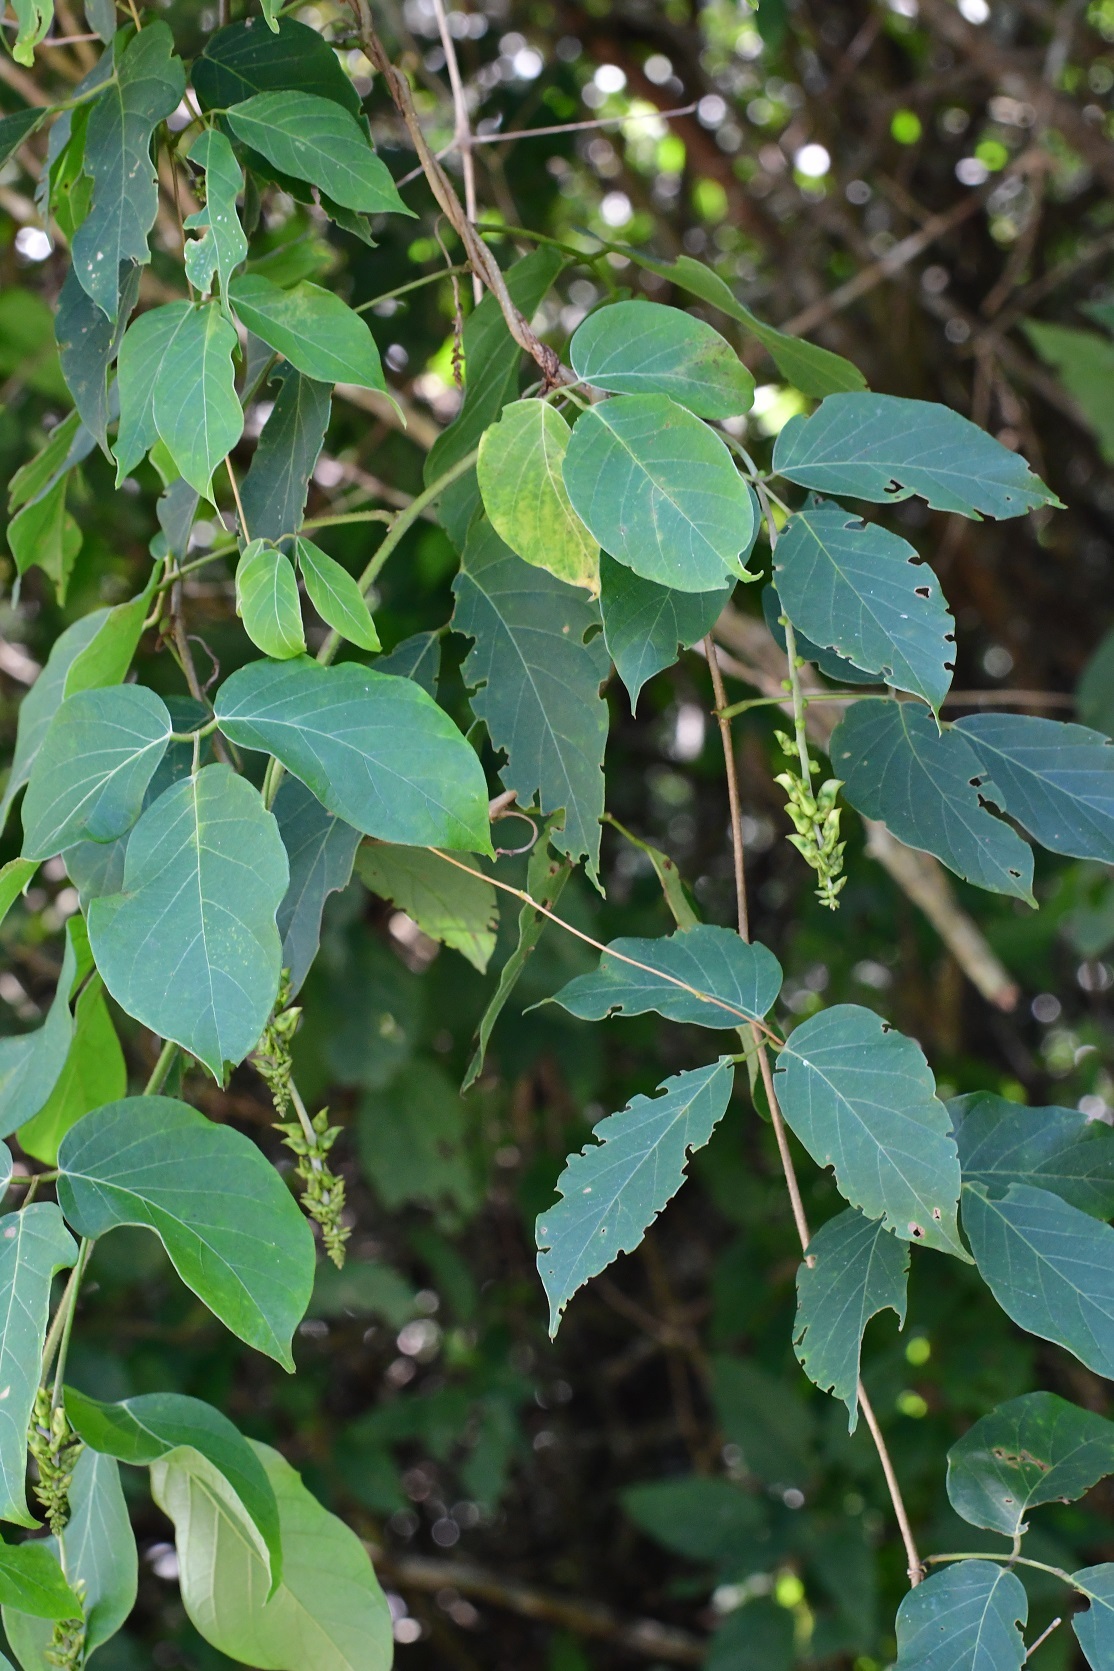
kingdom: Plantae
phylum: Tracheophyta
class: Magnoliopsida
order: Fabales
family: Fabaceae
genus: Canavalia
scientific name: Canavalia oxyphylla
